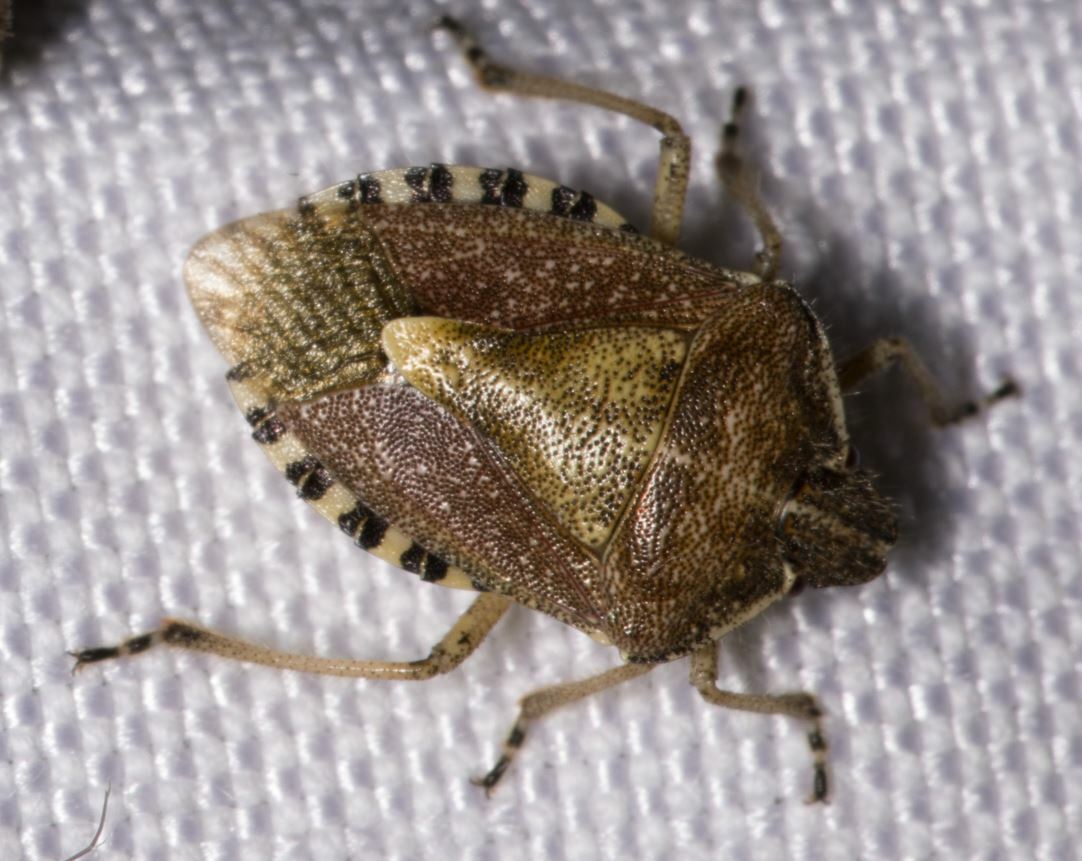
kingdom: Animalia
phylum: Arthropoda
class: Insecta
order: Hemiptera
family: Pentatomidae
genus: Dolycoris
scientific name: Dolycoris baccarum
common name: Sloe bug
